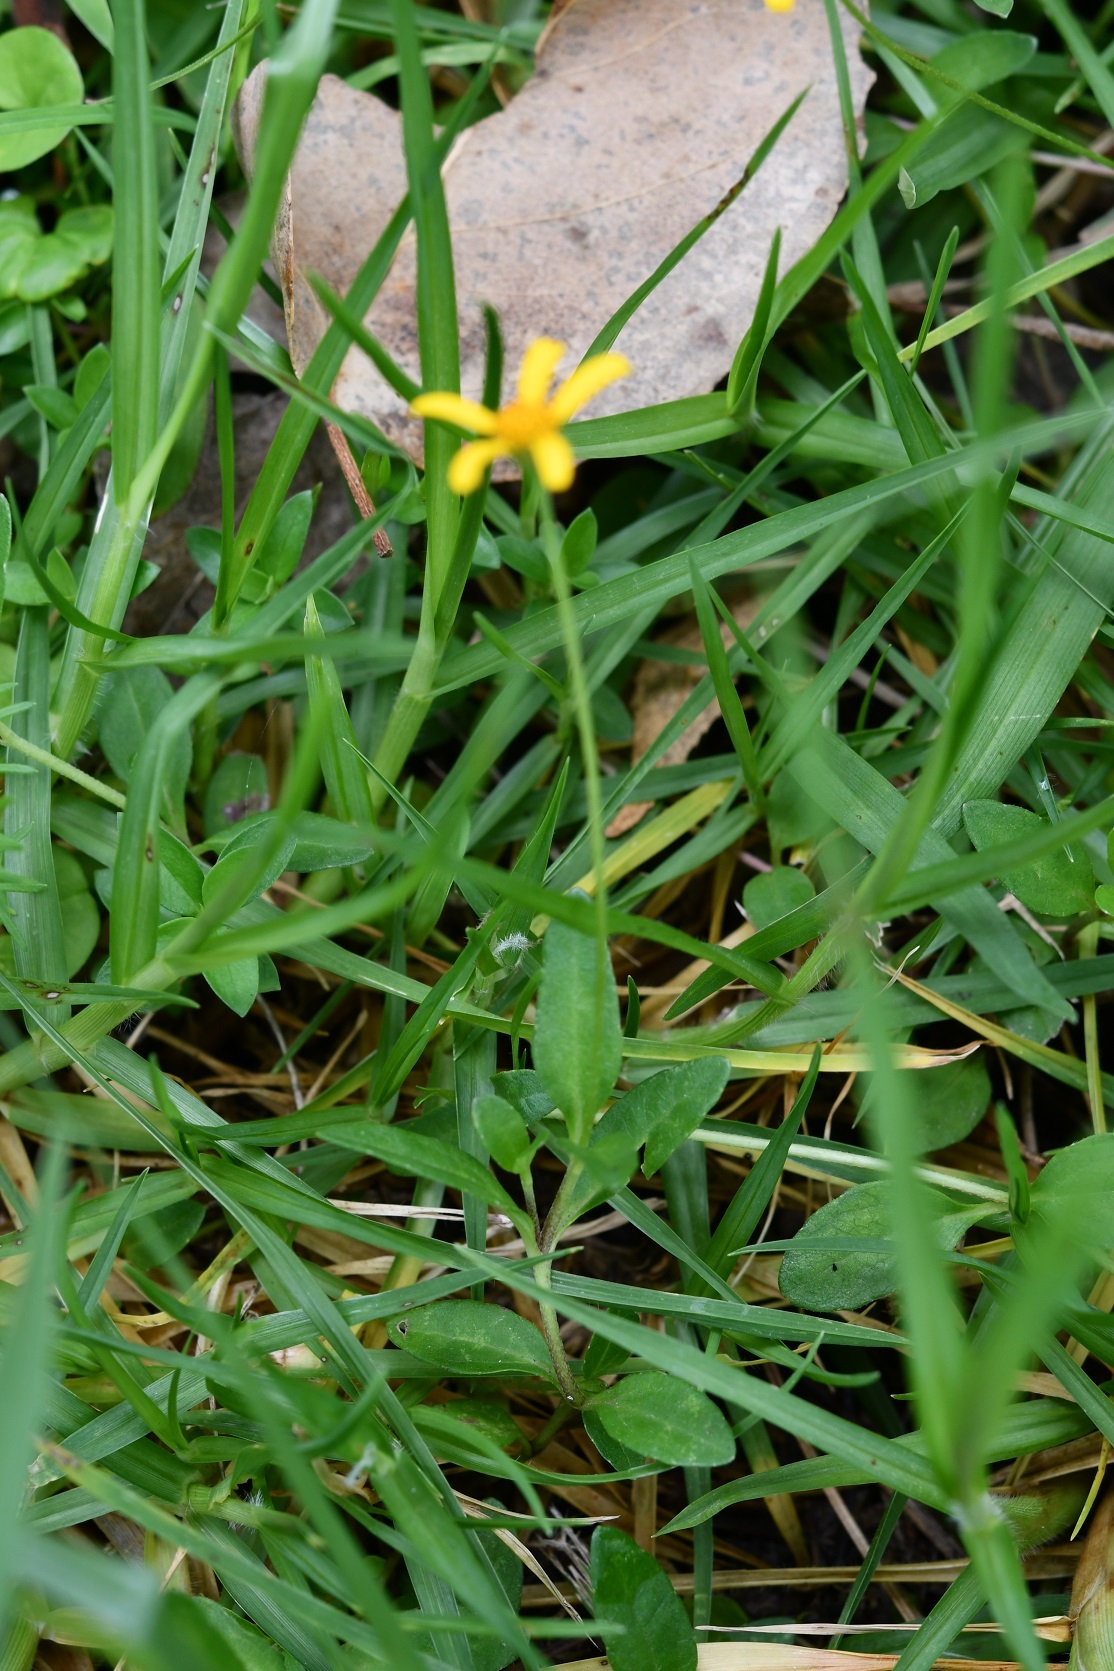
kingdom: Plantae
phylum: Tracheophyta
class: Magnoliopsida
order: Asterales
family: Asteraceae
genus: Heliopsis
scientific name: Heliopsis buphthalmoides
